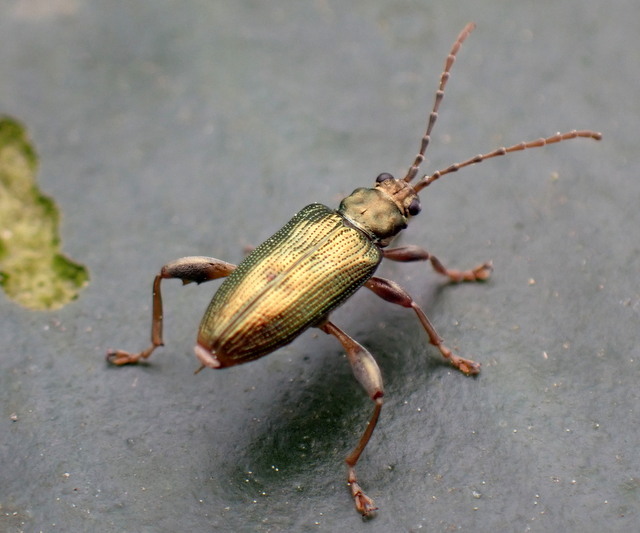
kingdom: Animalia
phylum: Arthropoda
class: Insecta
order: Coleoptera
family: Chrysomelidae
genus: Donacia
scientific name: Donacia piscatrix
